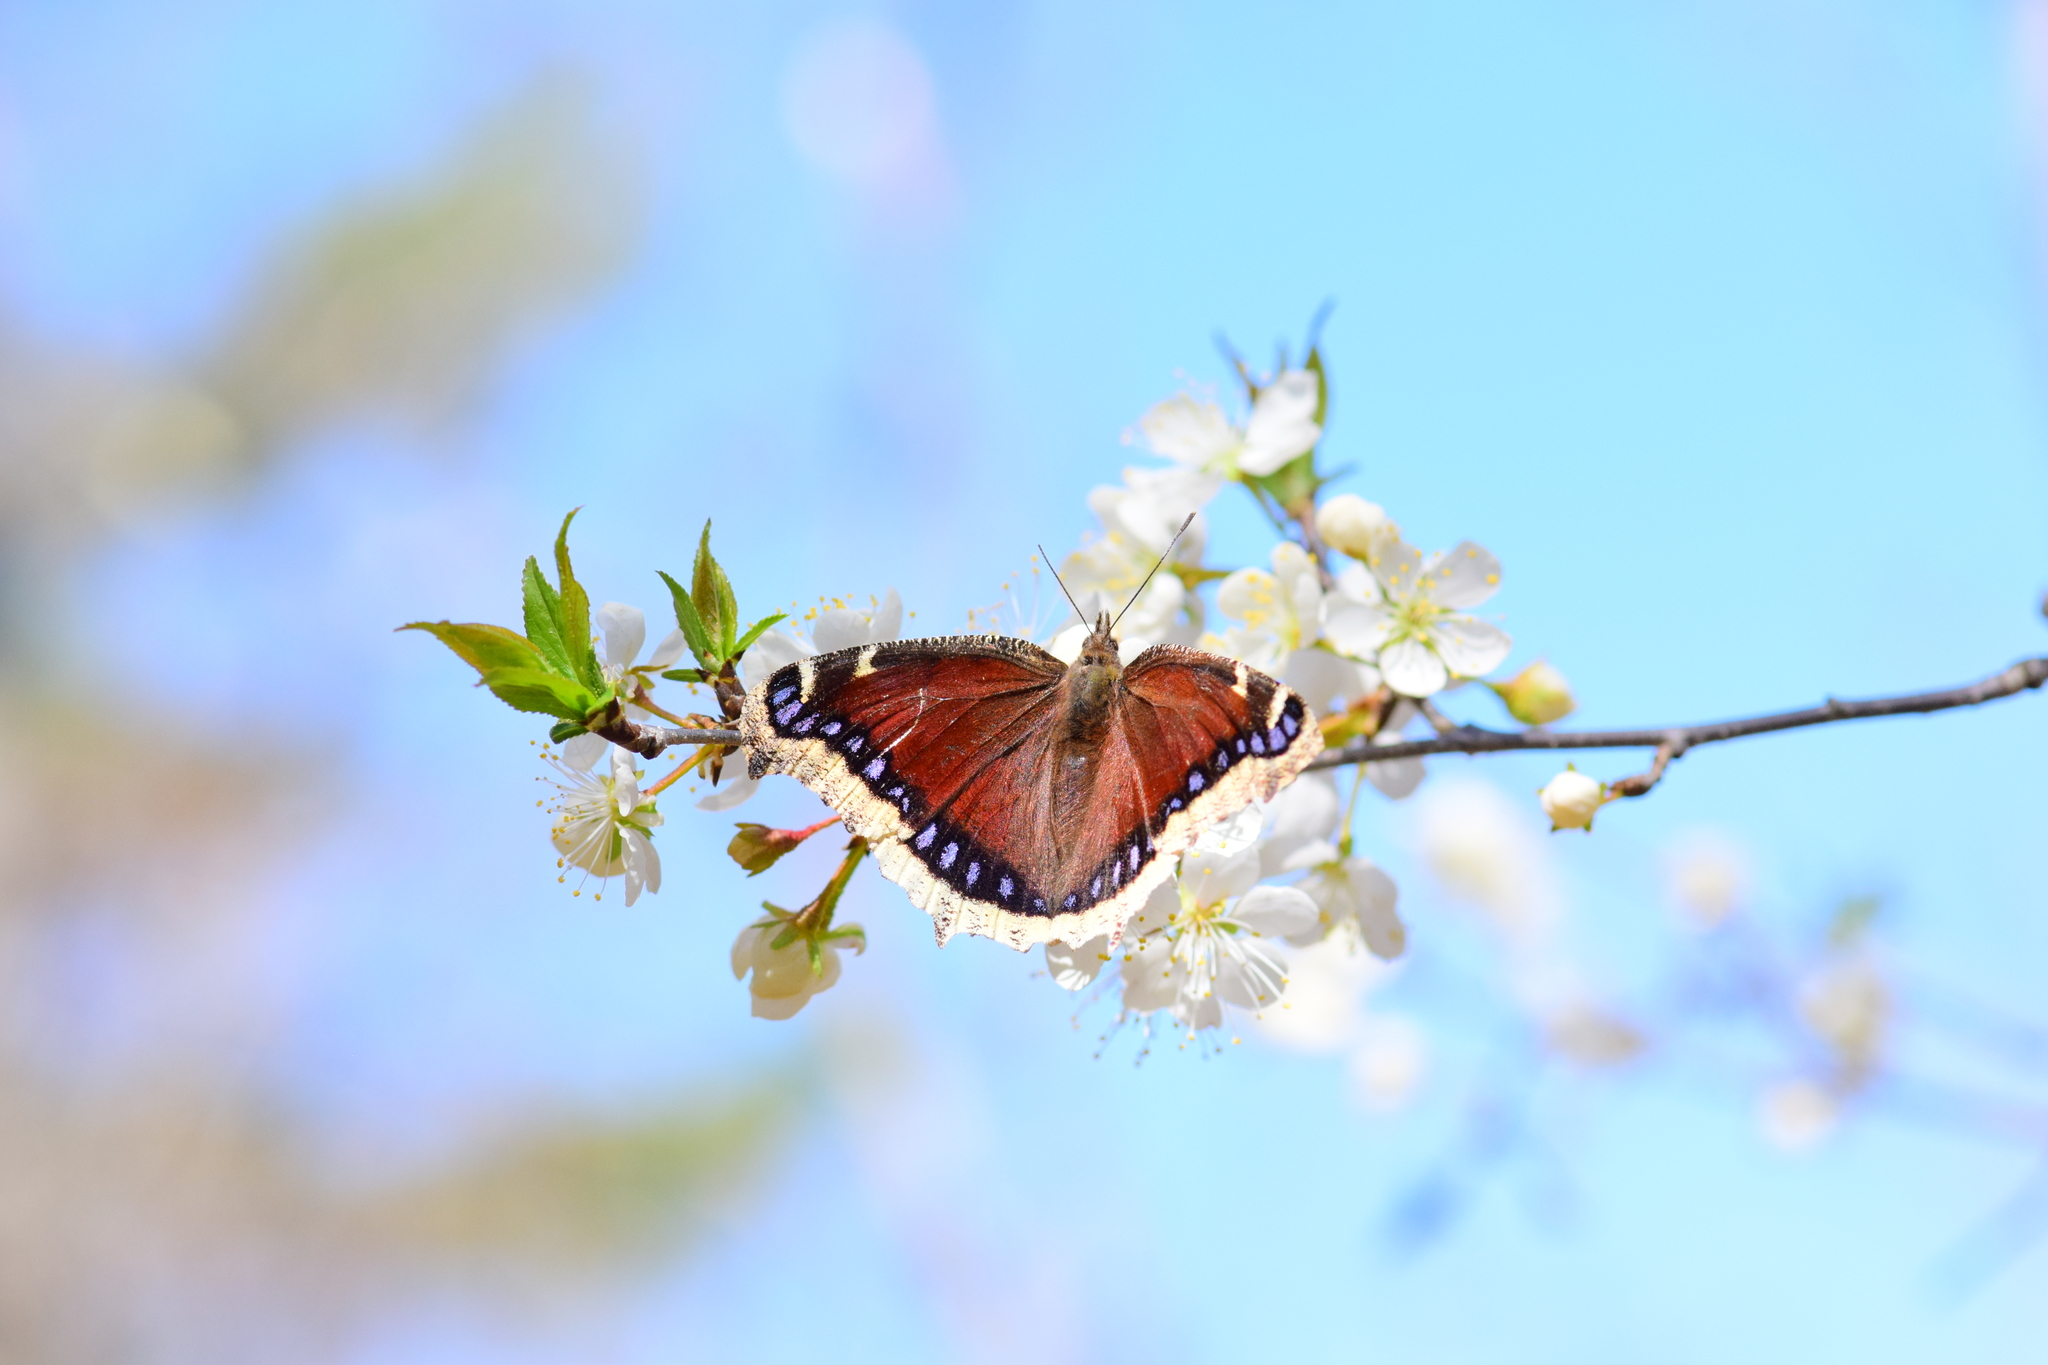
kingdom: Animalia
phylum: Arthropoda
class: Insecta
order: Lepidoptera
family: Nymphalidae
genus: Nymphalis
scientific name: Nymphalis antiopa
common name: Camberwell beauty
